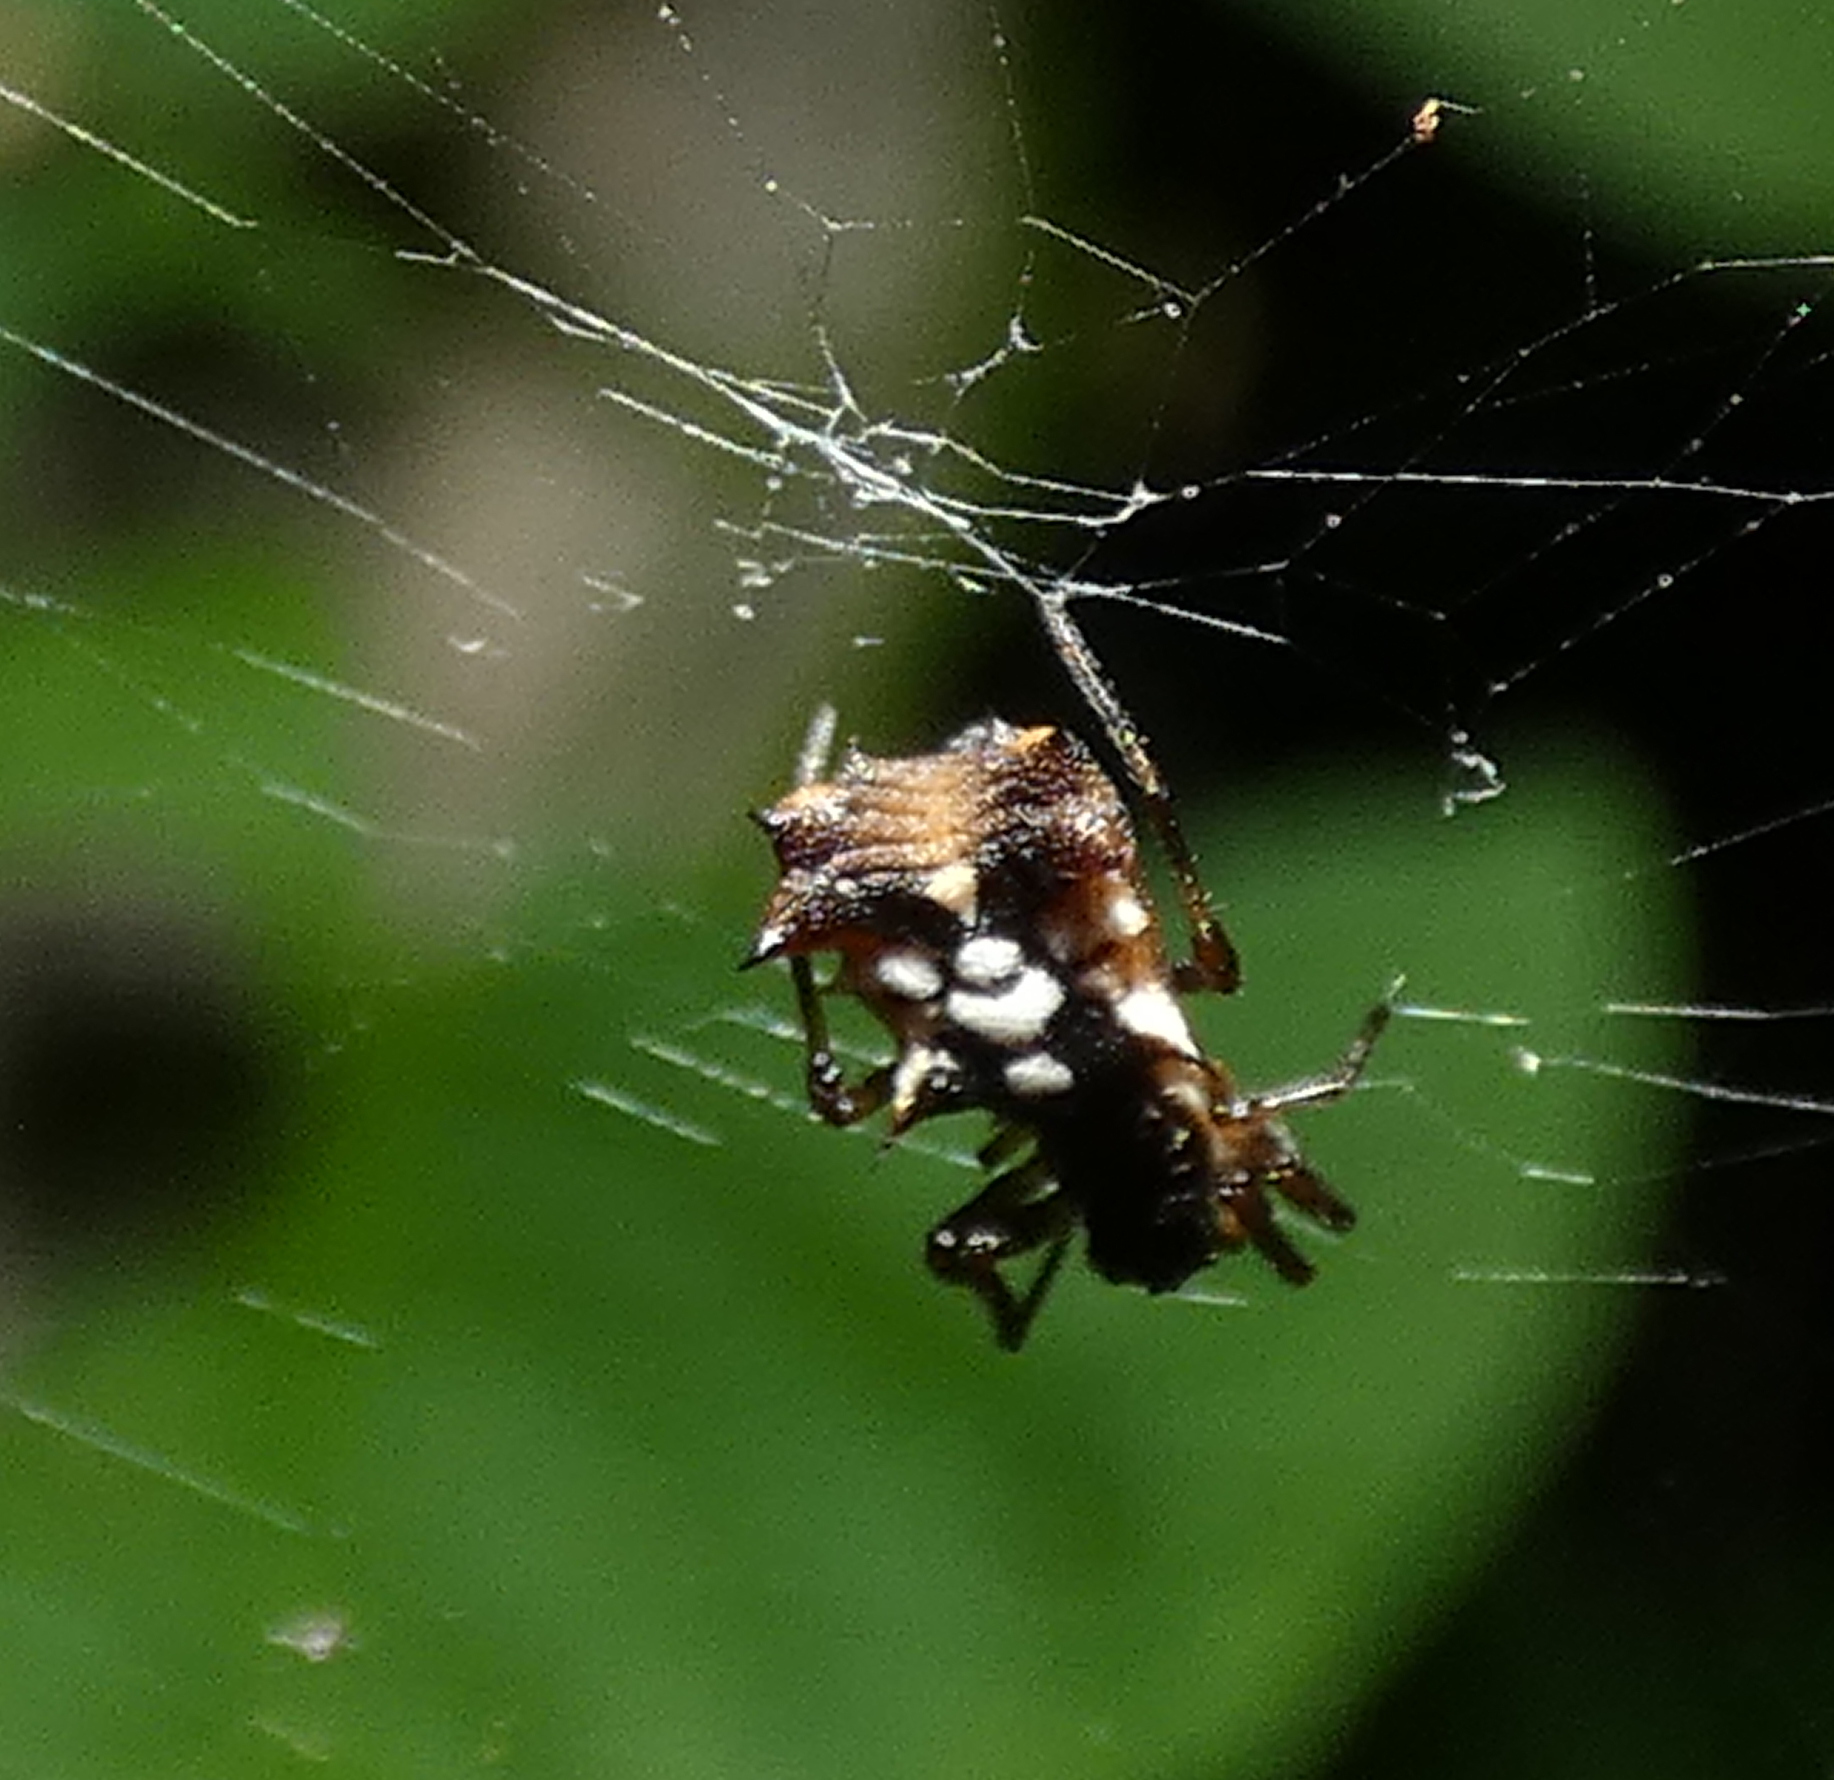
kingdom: Animalia
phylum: Arthropoda
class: Arachnida
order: Araneae
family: Araneidae
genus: Micrathena
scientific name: Micrathena picta
